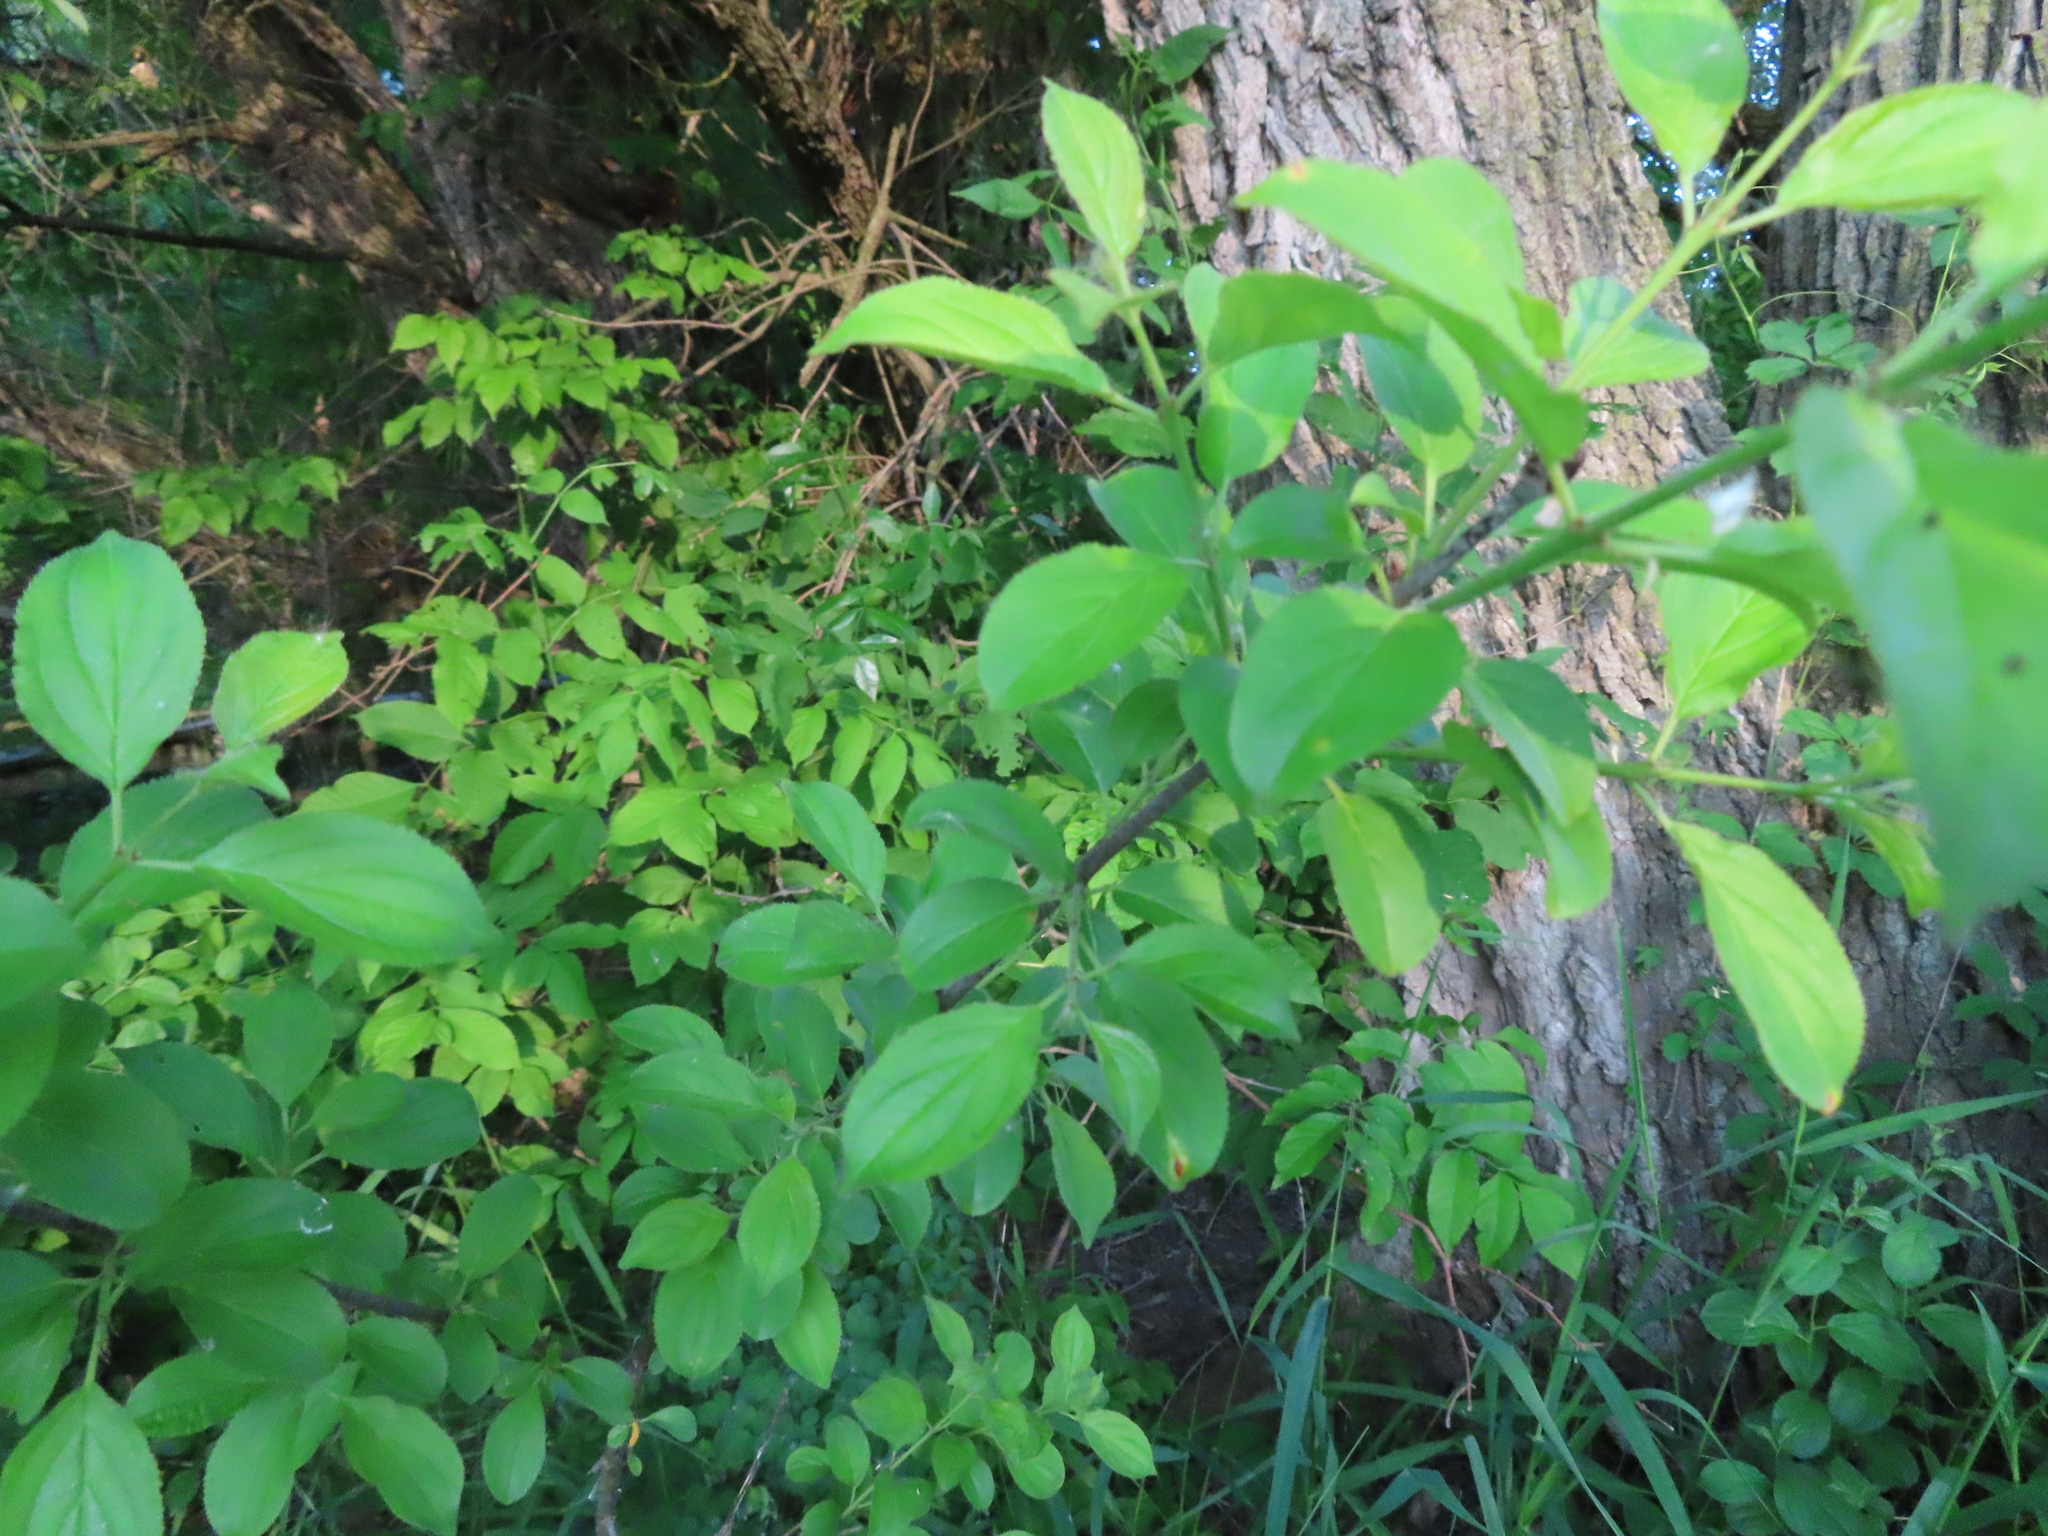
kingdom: Plantae
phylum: Tracheophyta
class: Magnoliopsida
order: Rosales
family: Rhamnaceae
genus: Rhamnus
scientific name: Rhamnus cathartica
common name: Common buckthorn
